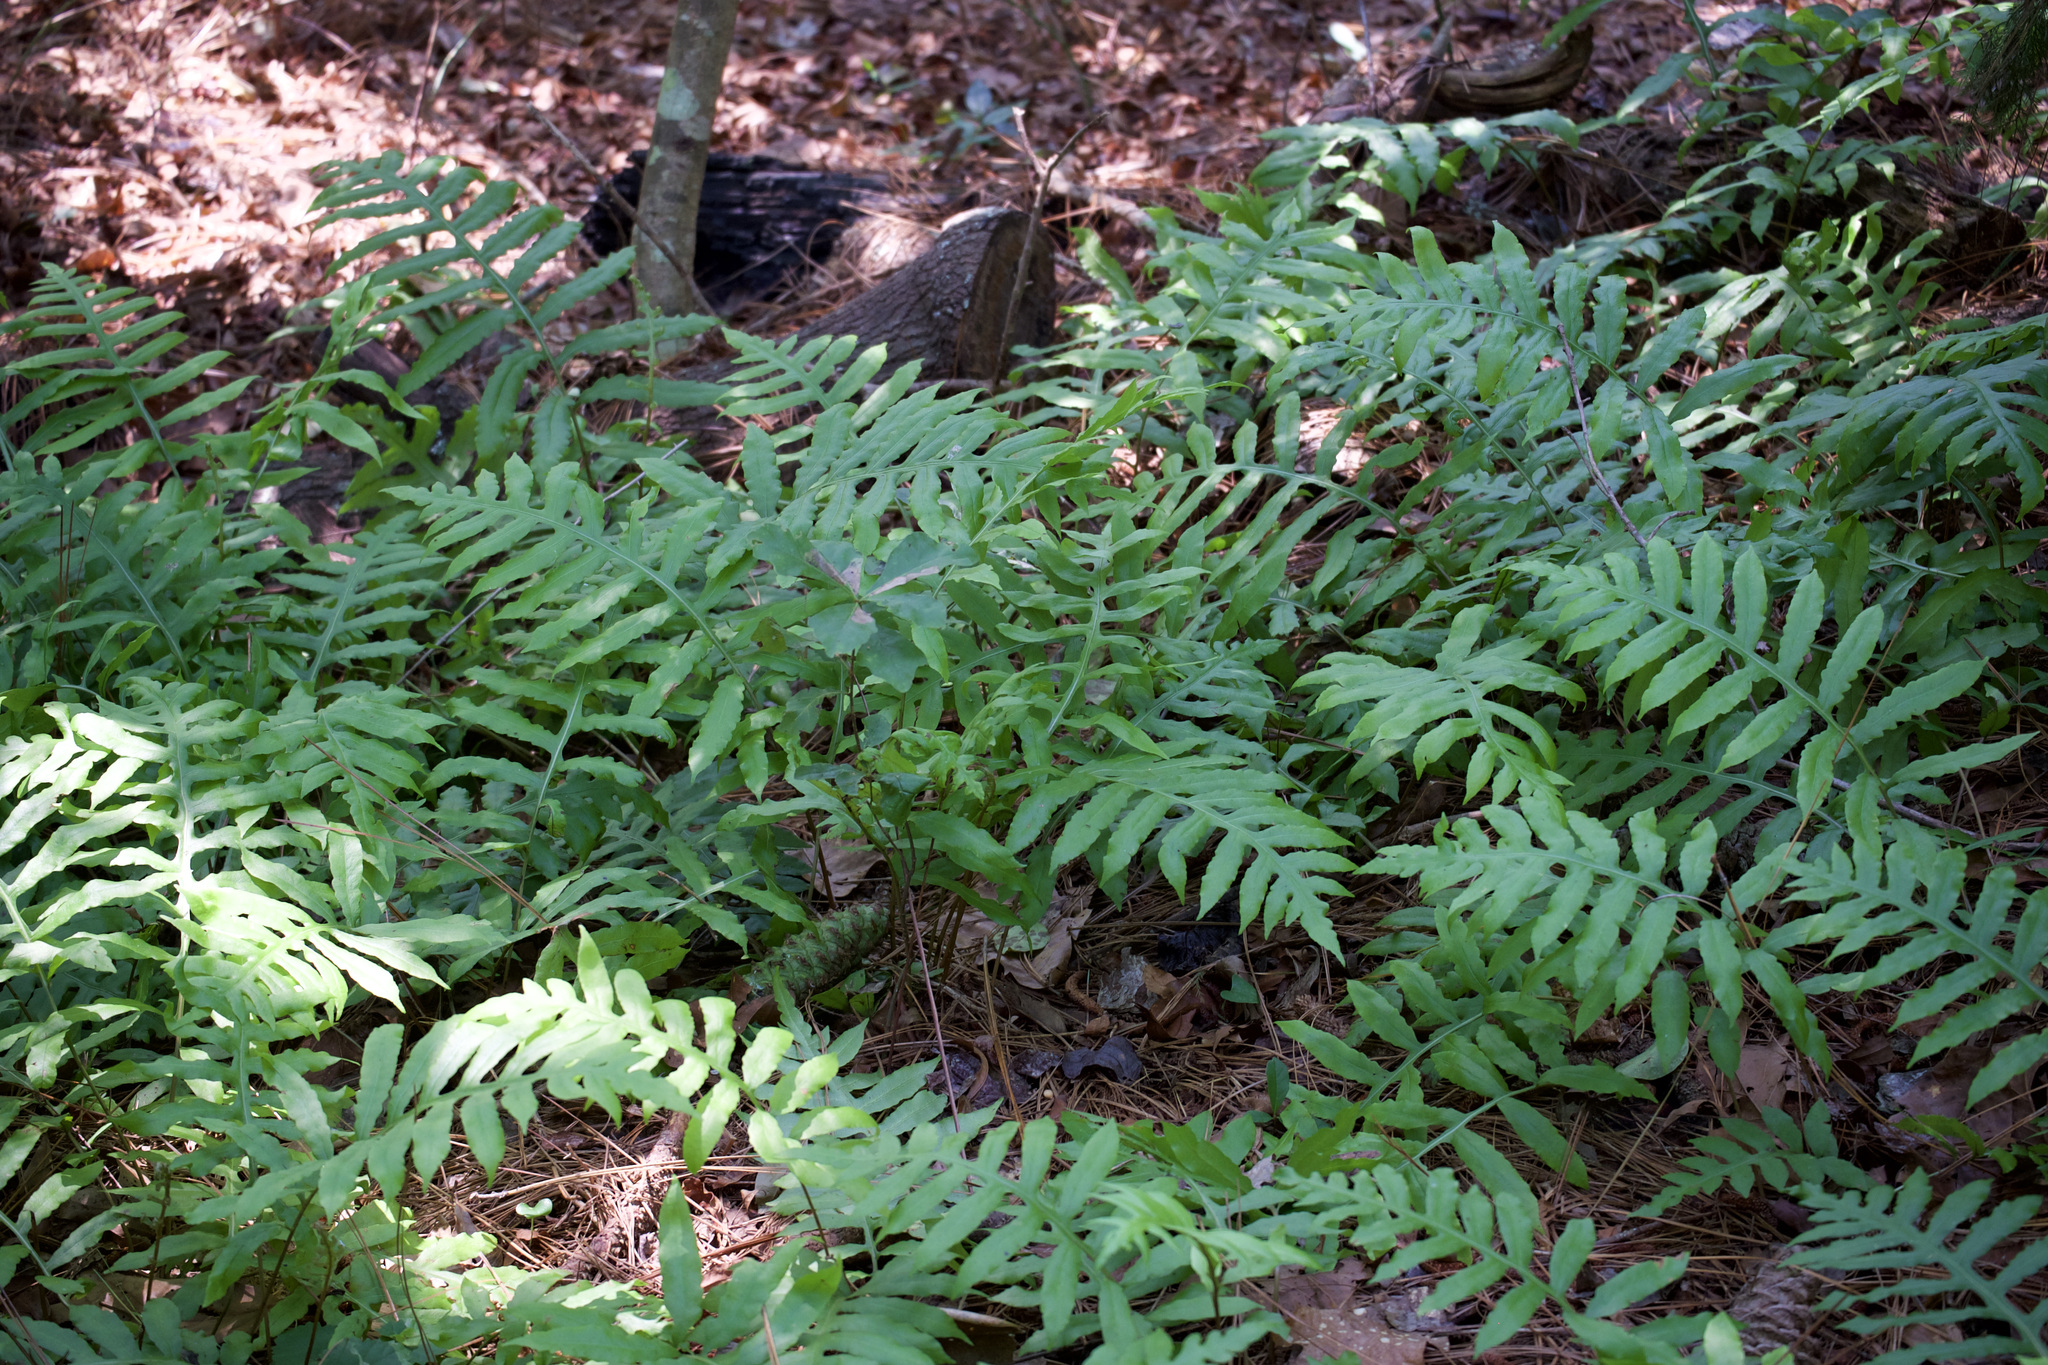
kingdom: Plantae
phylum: Tracheophyta
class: Polypodiopsida
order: Polypodiales
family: Blechnaceae
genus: Lorinseria
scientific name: Lorinseria areolata
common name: Dwarf chain fern
